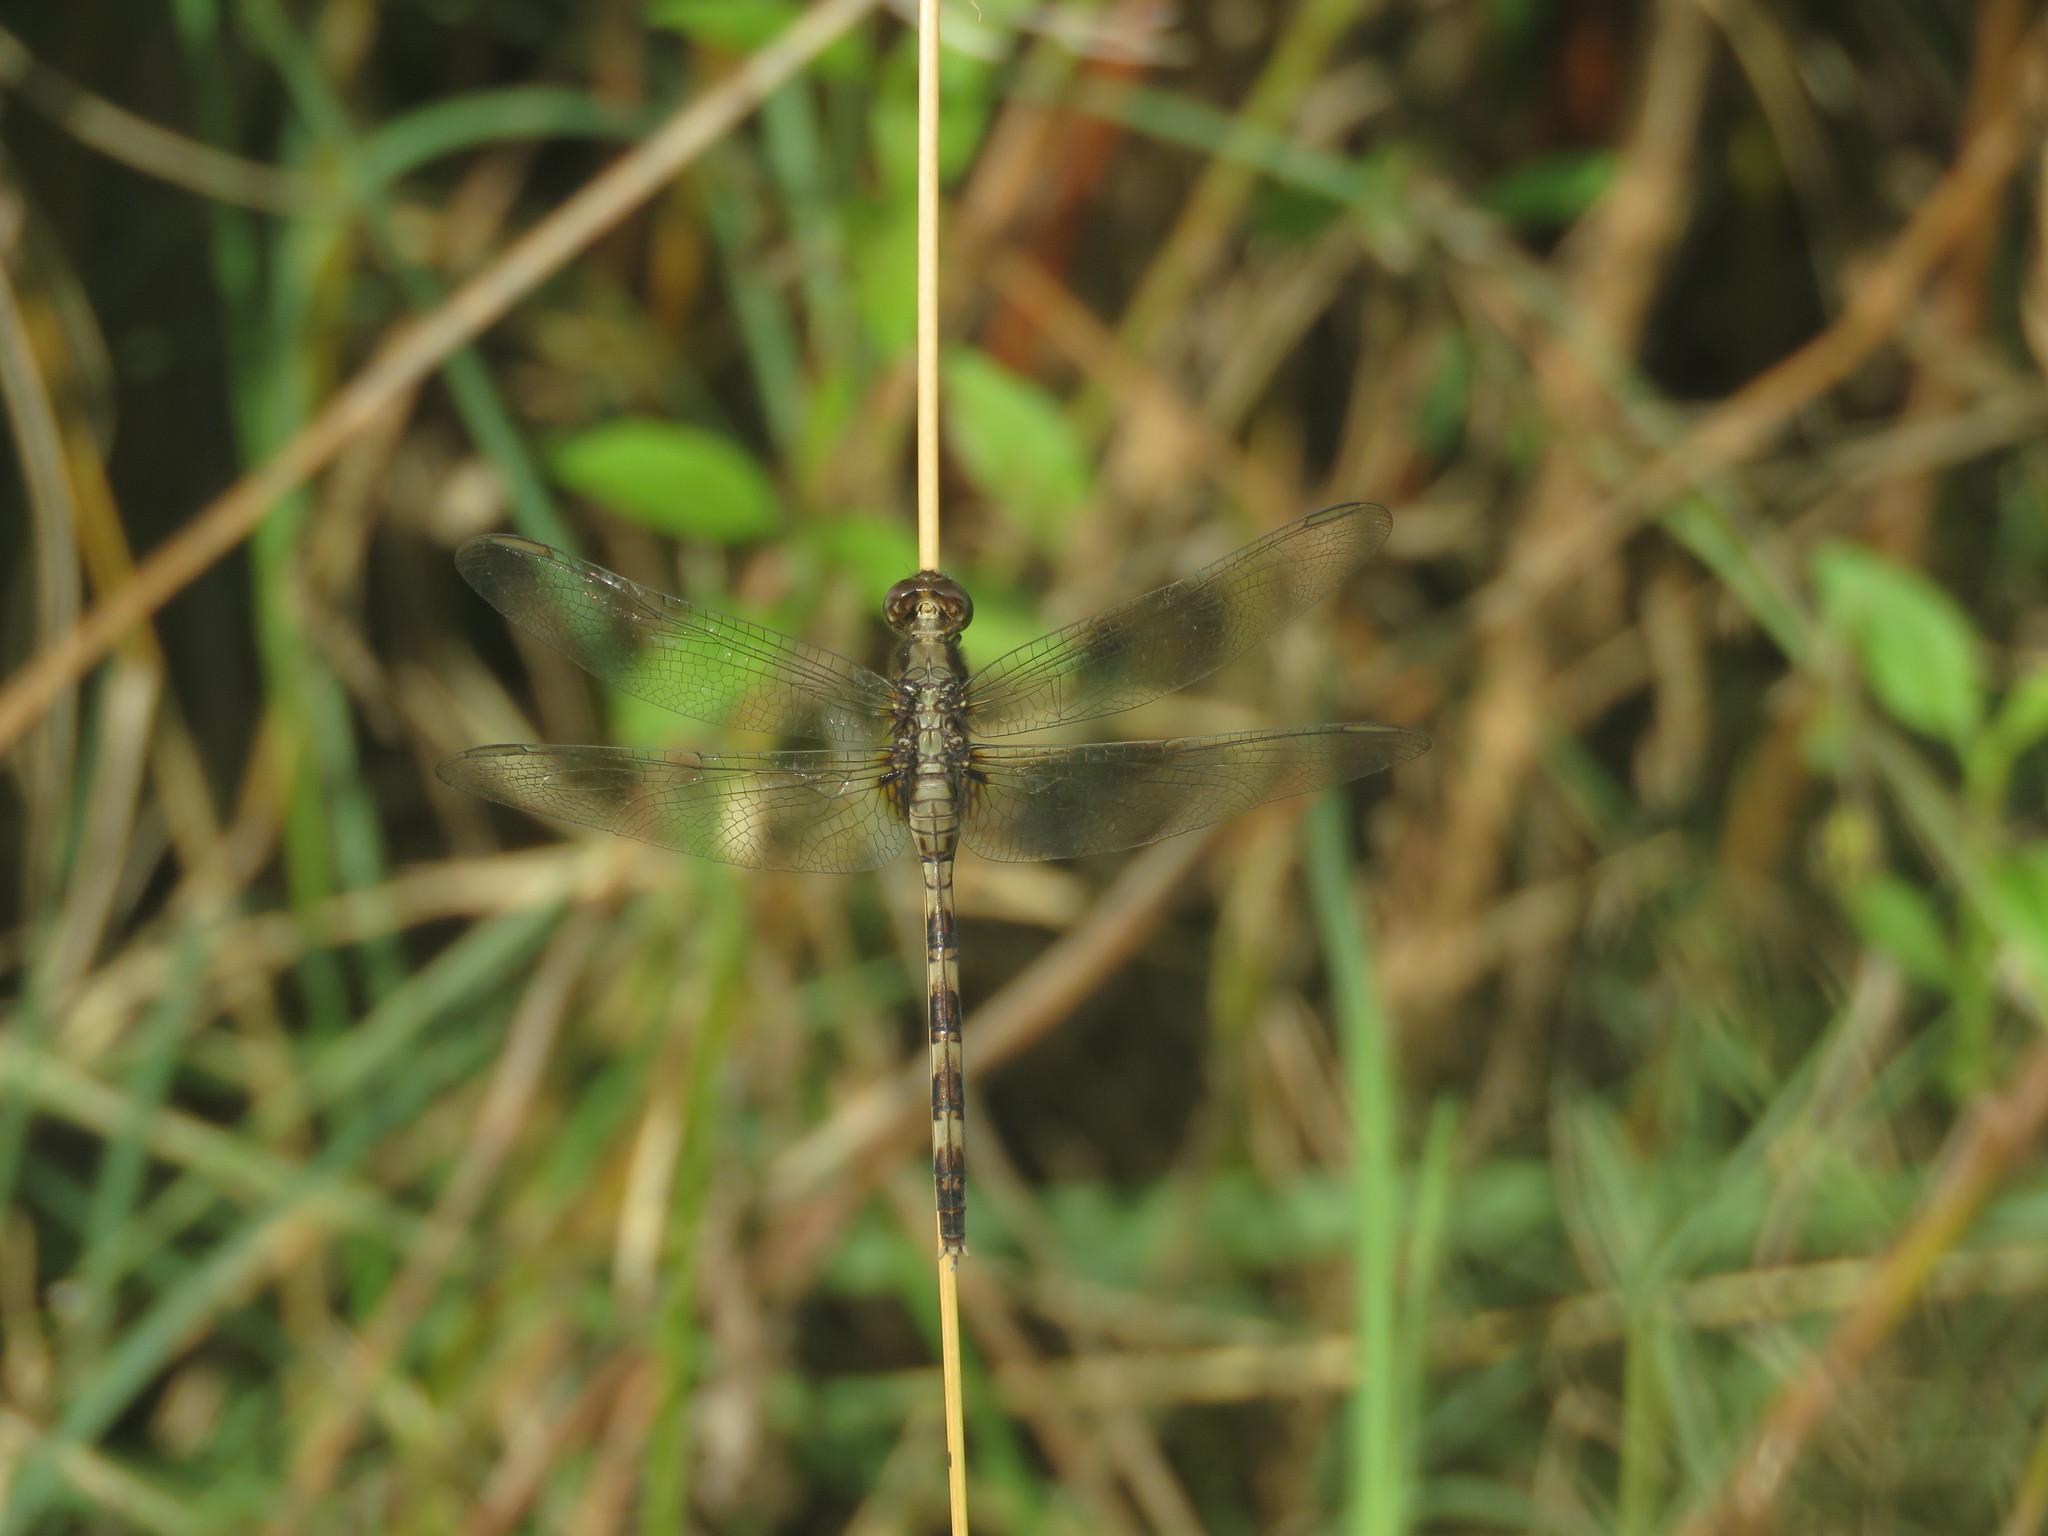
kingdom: Animalia
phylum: Arthropoda
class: Insecta
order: Odonata
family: Libellulidae
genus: Erythemis
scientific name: Erythemis plebeja
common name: Pin-tailed pondhawk
